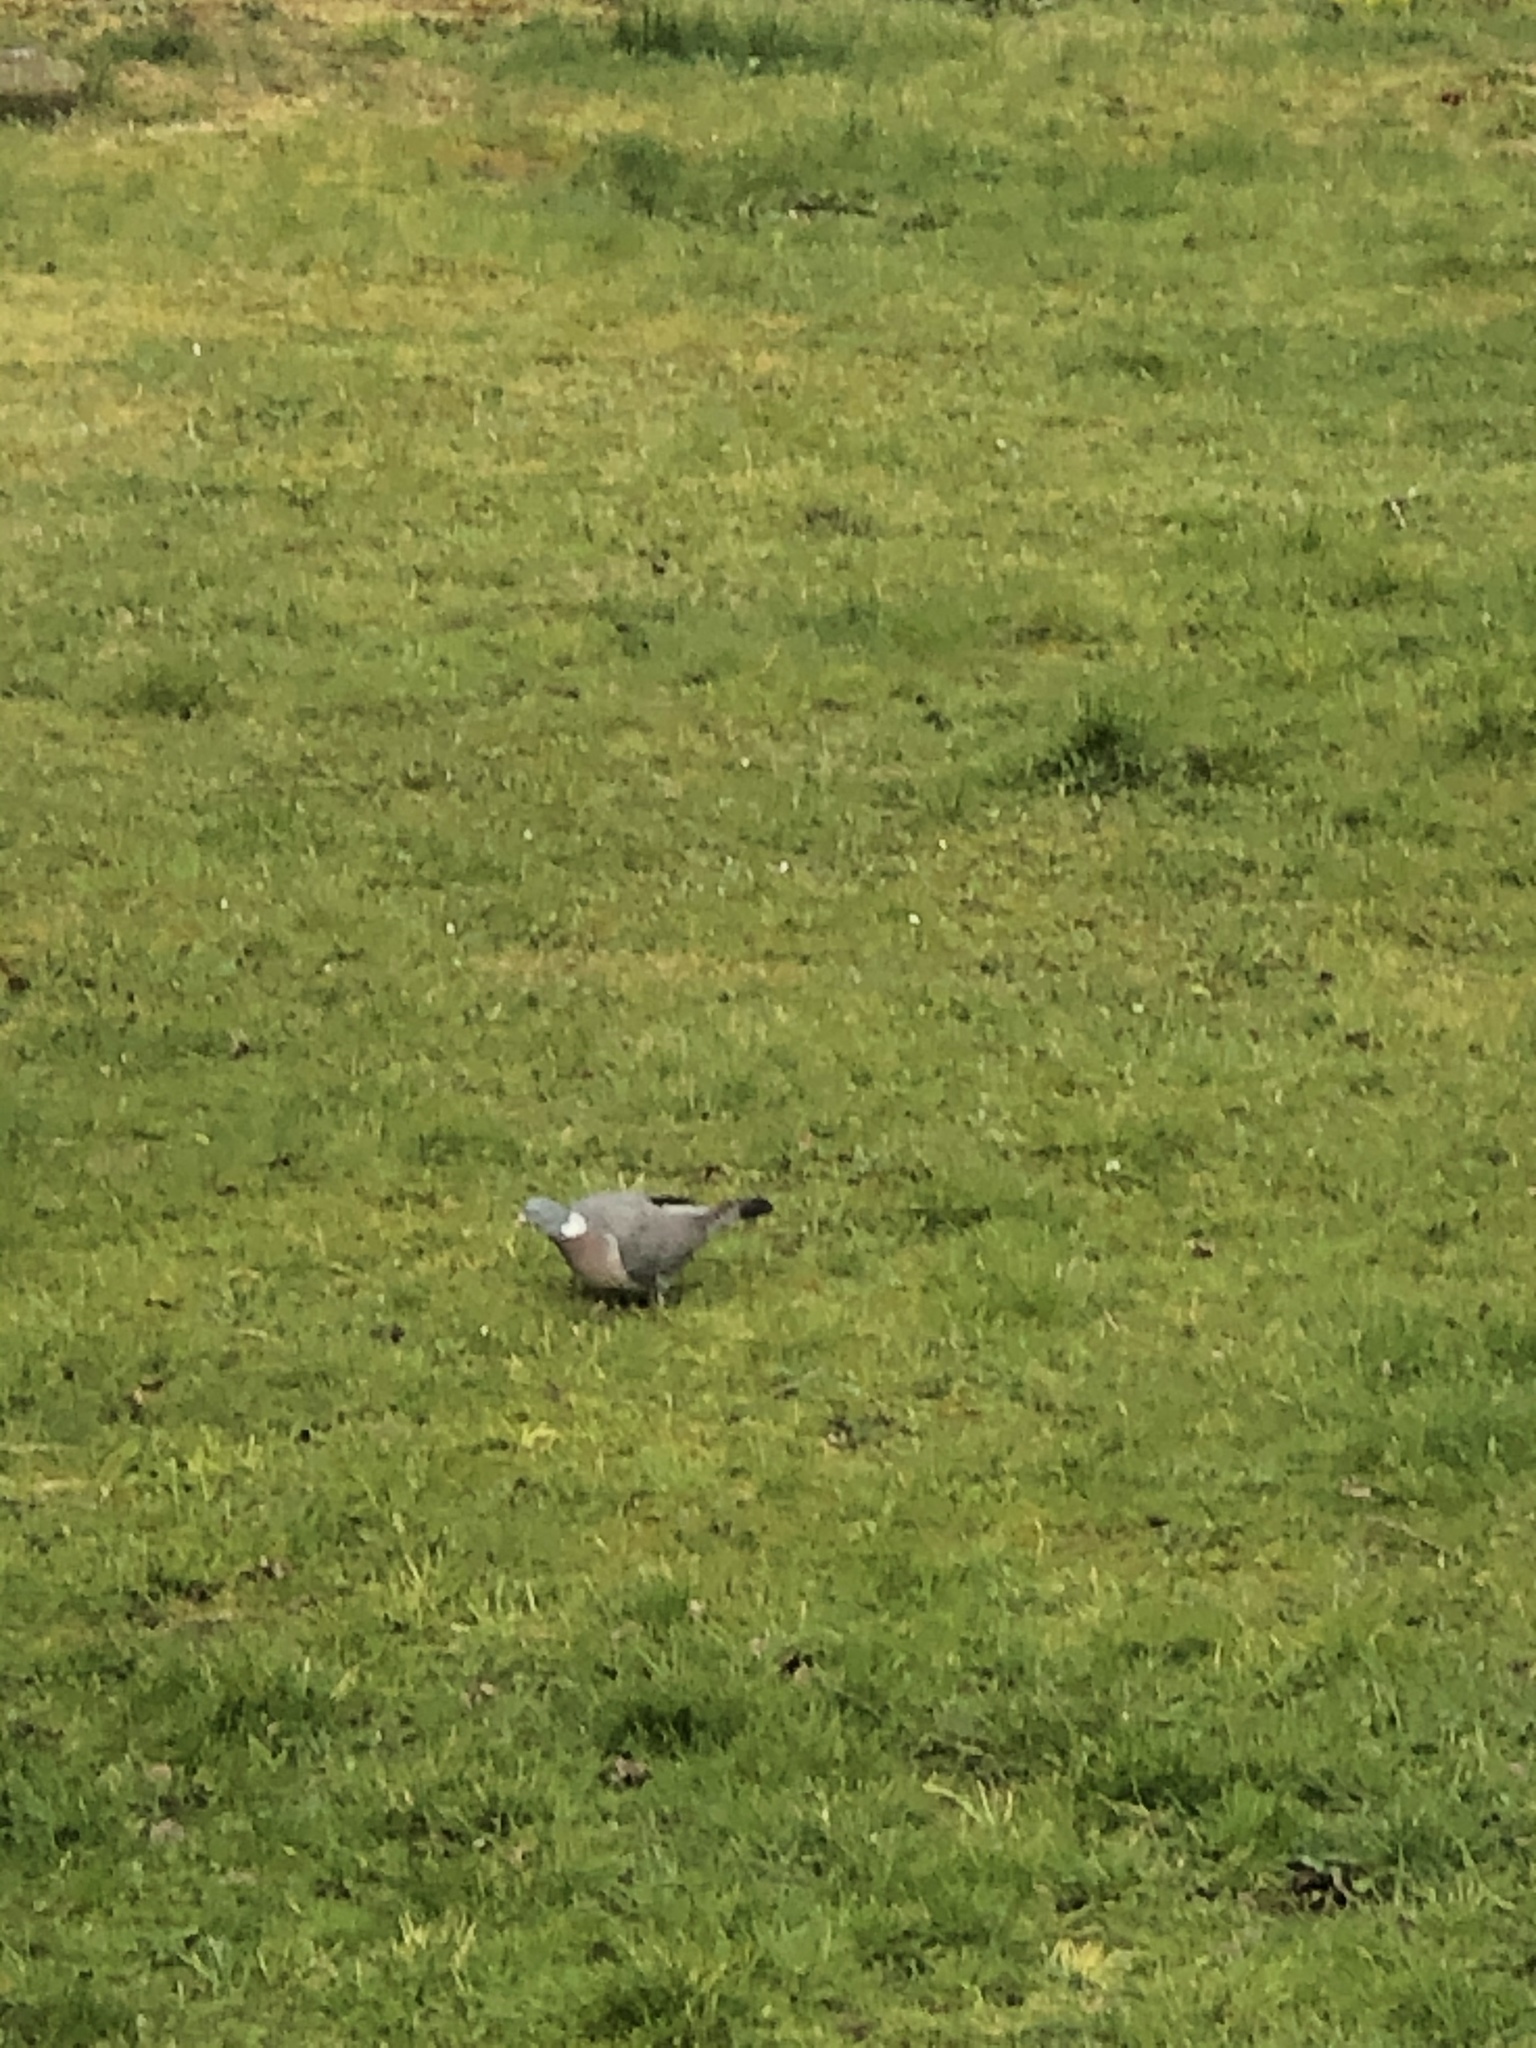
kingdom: Animalia
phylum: Chordata
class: Aves
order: Columbiformes
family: Columbidae
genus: Columba
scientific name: Columba palumbus
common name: Common wood pigeon
